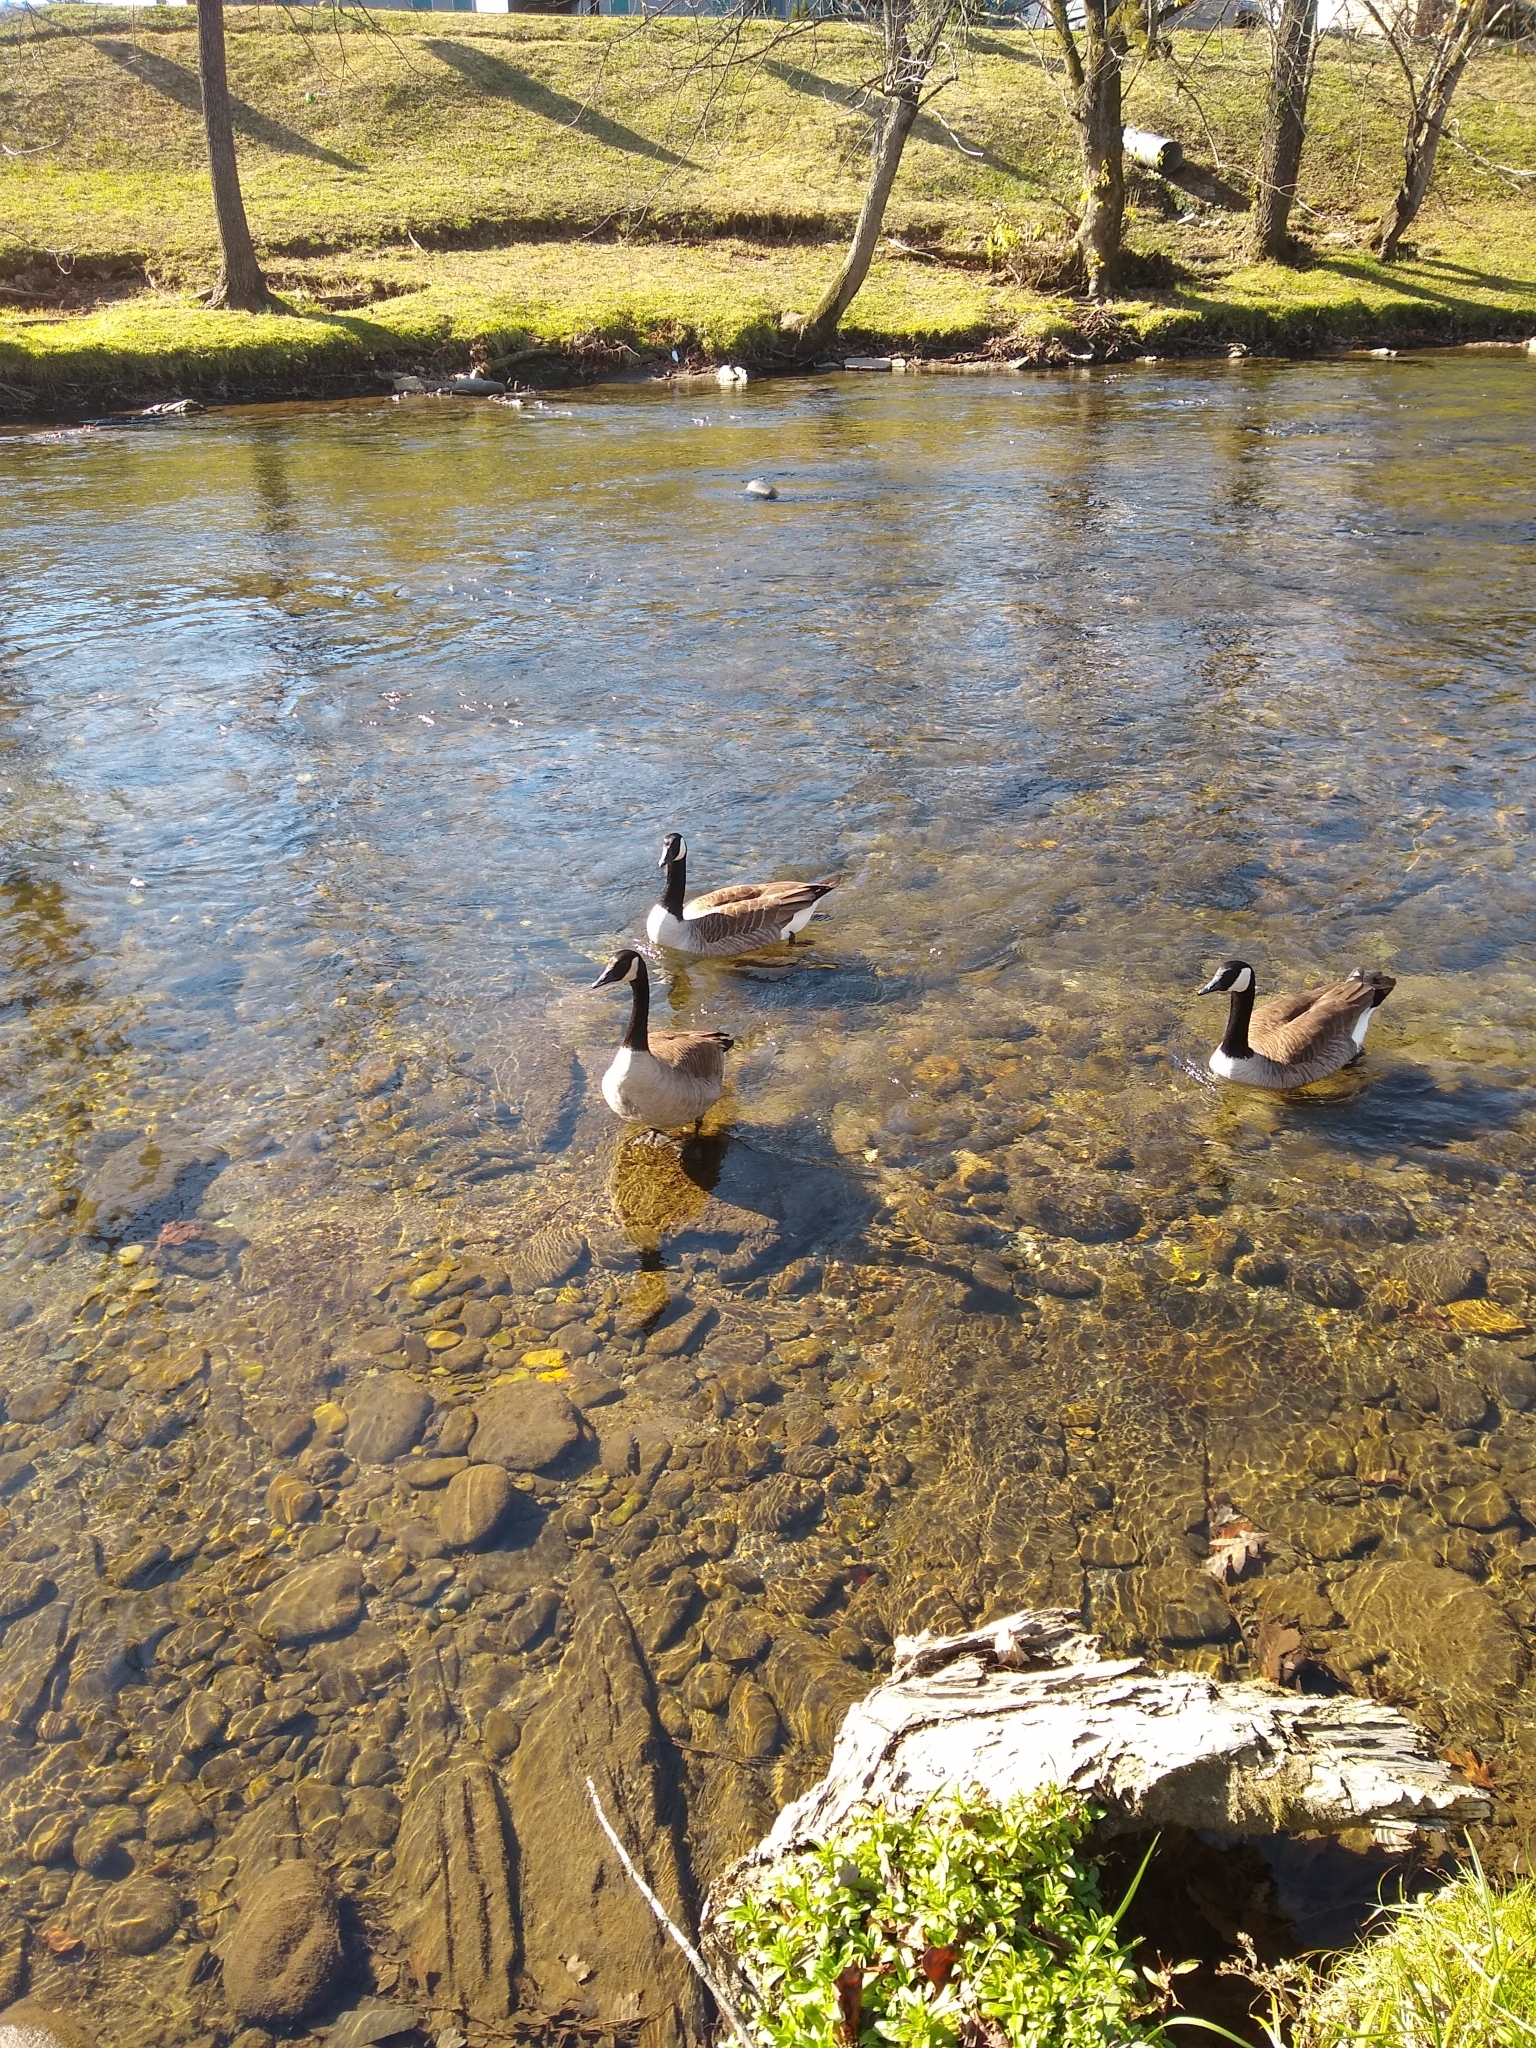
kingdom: Animalia
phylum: Chordata
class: Aves
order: Anseriformes
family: Anatidae
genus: Branta
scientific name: Branta canadensis
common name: Canada goose
